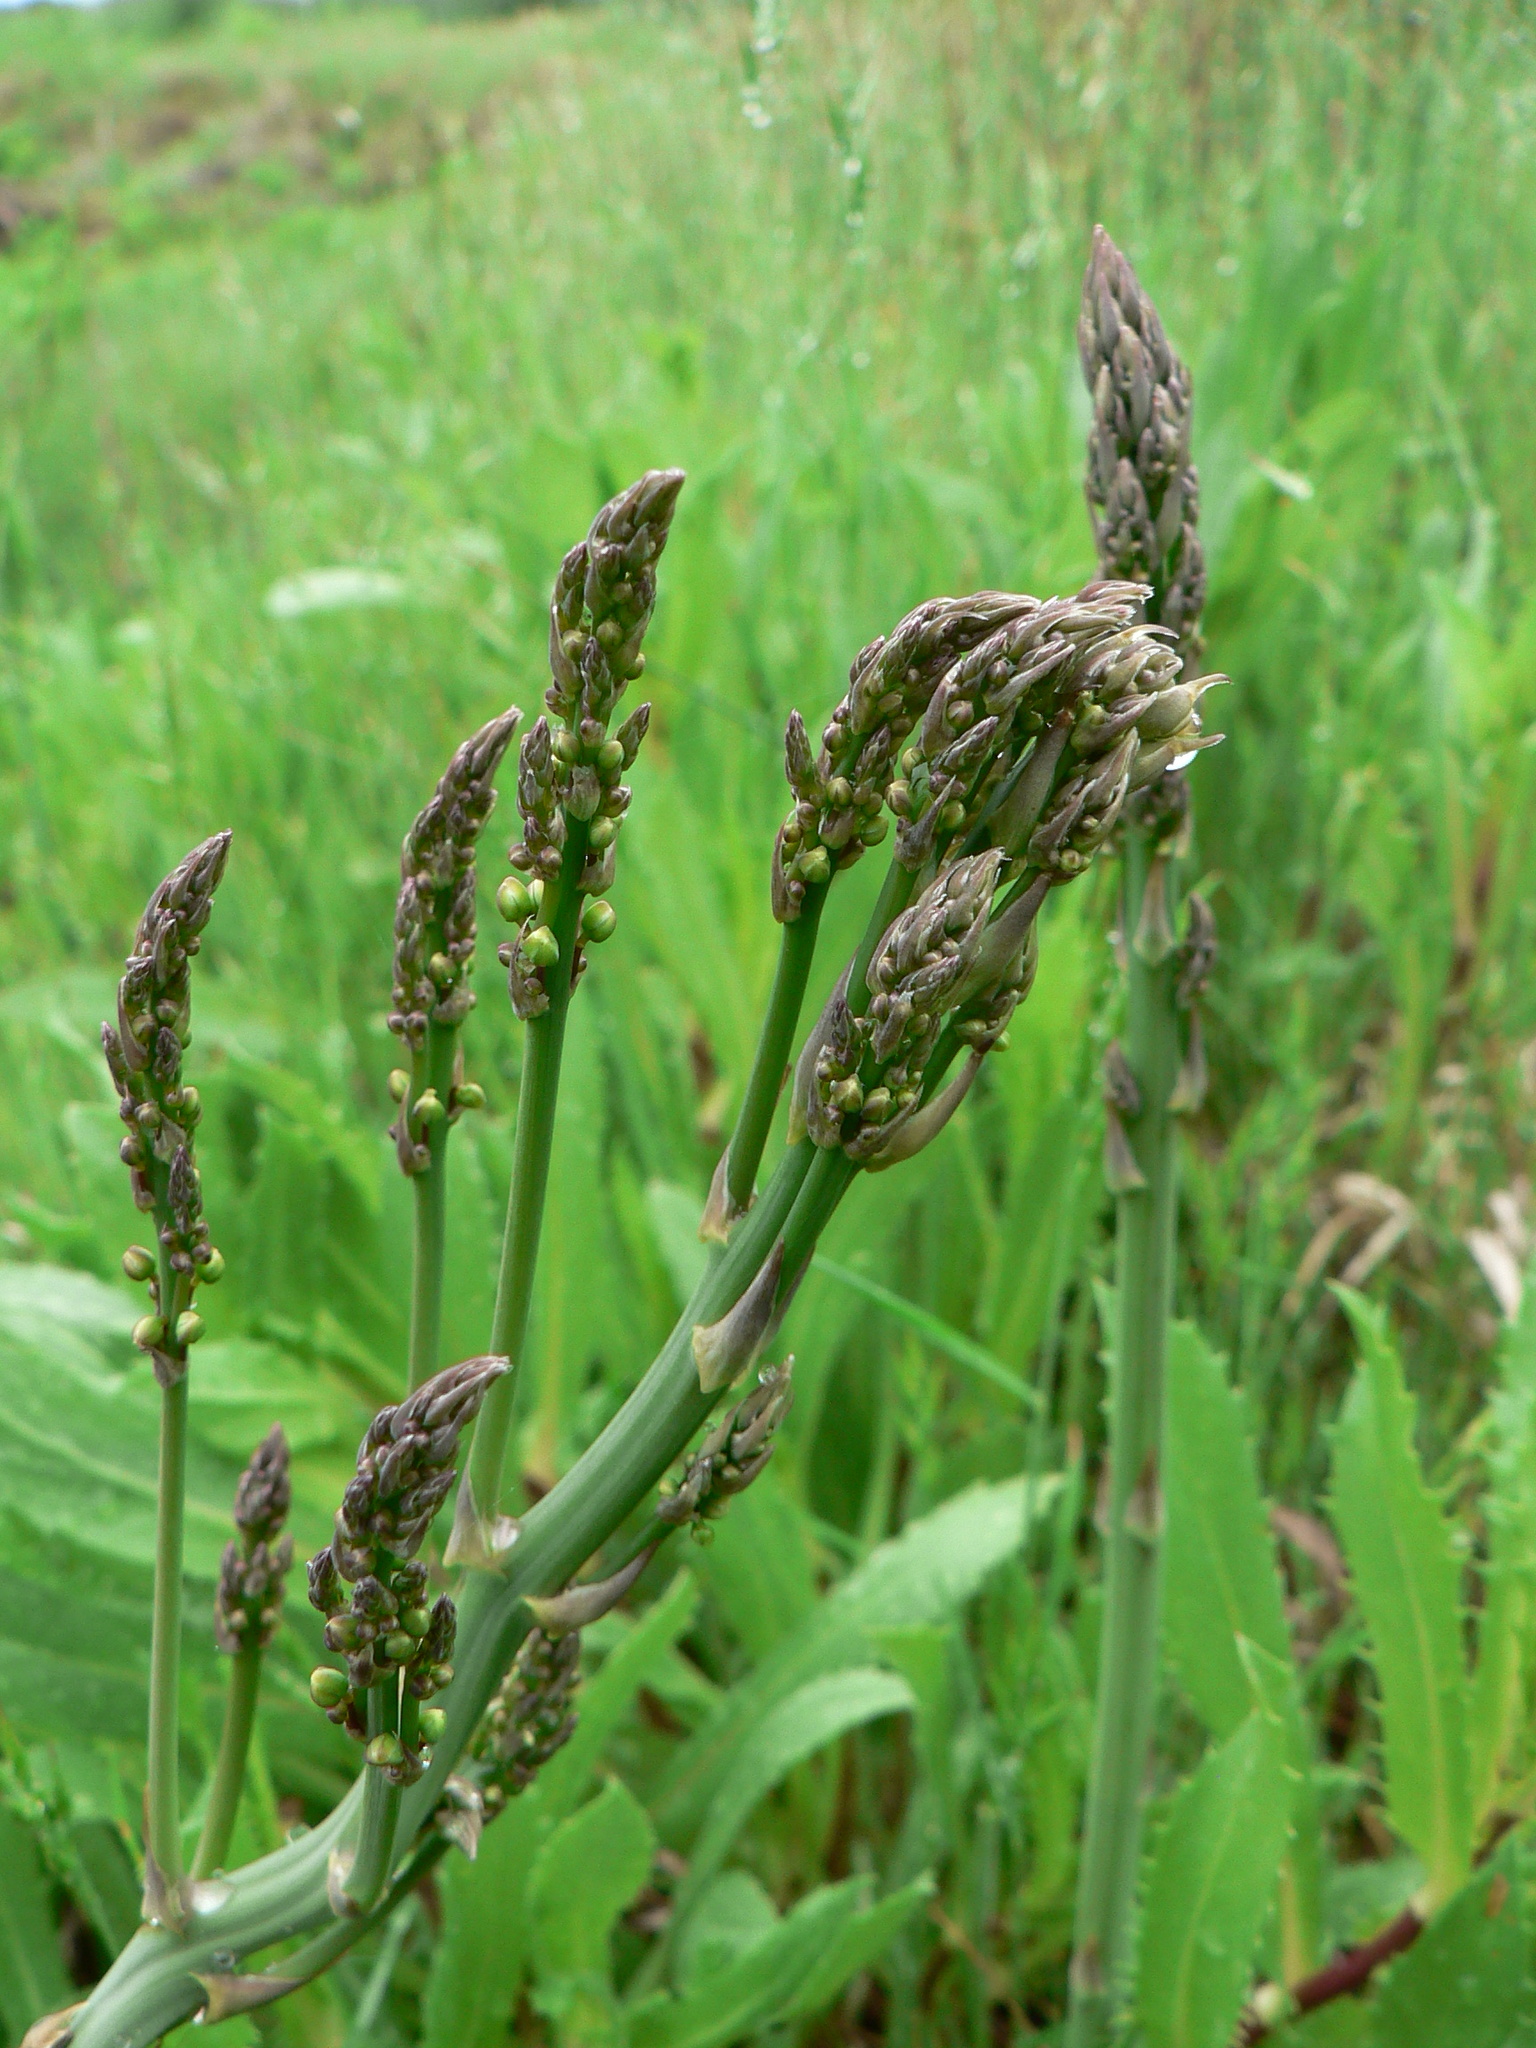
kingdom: Plantae
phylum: Tracheophyta
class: Liliopsida
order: Asparagales
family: Asparagaceae
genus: Asparagus
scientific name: Asparagus officinalis
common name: Garden asparagus
